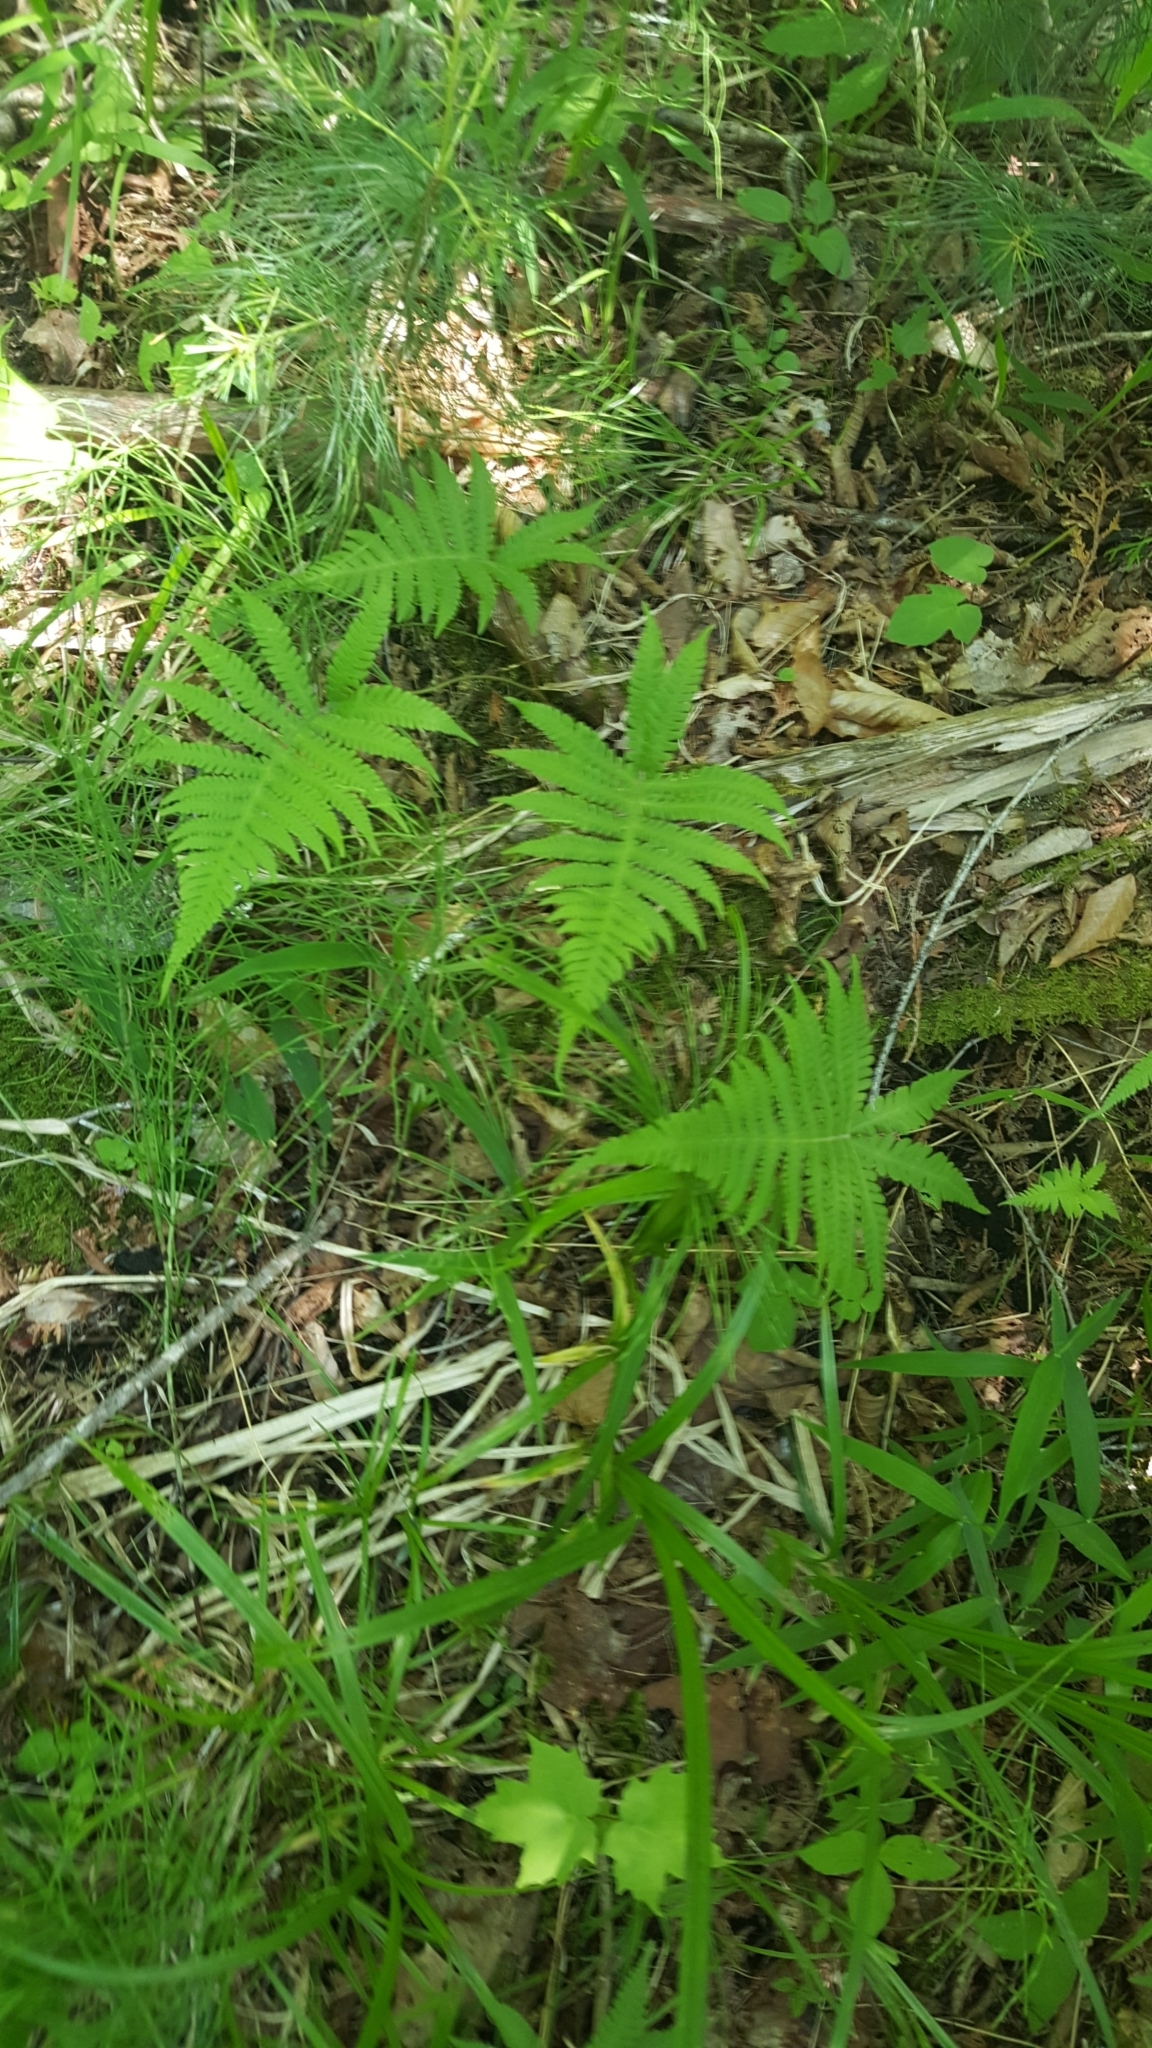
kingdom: Plantae
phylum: Tracheophyta
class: Polypodiopsida
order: Polypodiales
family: Thelypteridaceae
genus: Phegopteris
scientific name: Phegopteris connectilis
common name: Beech fern
